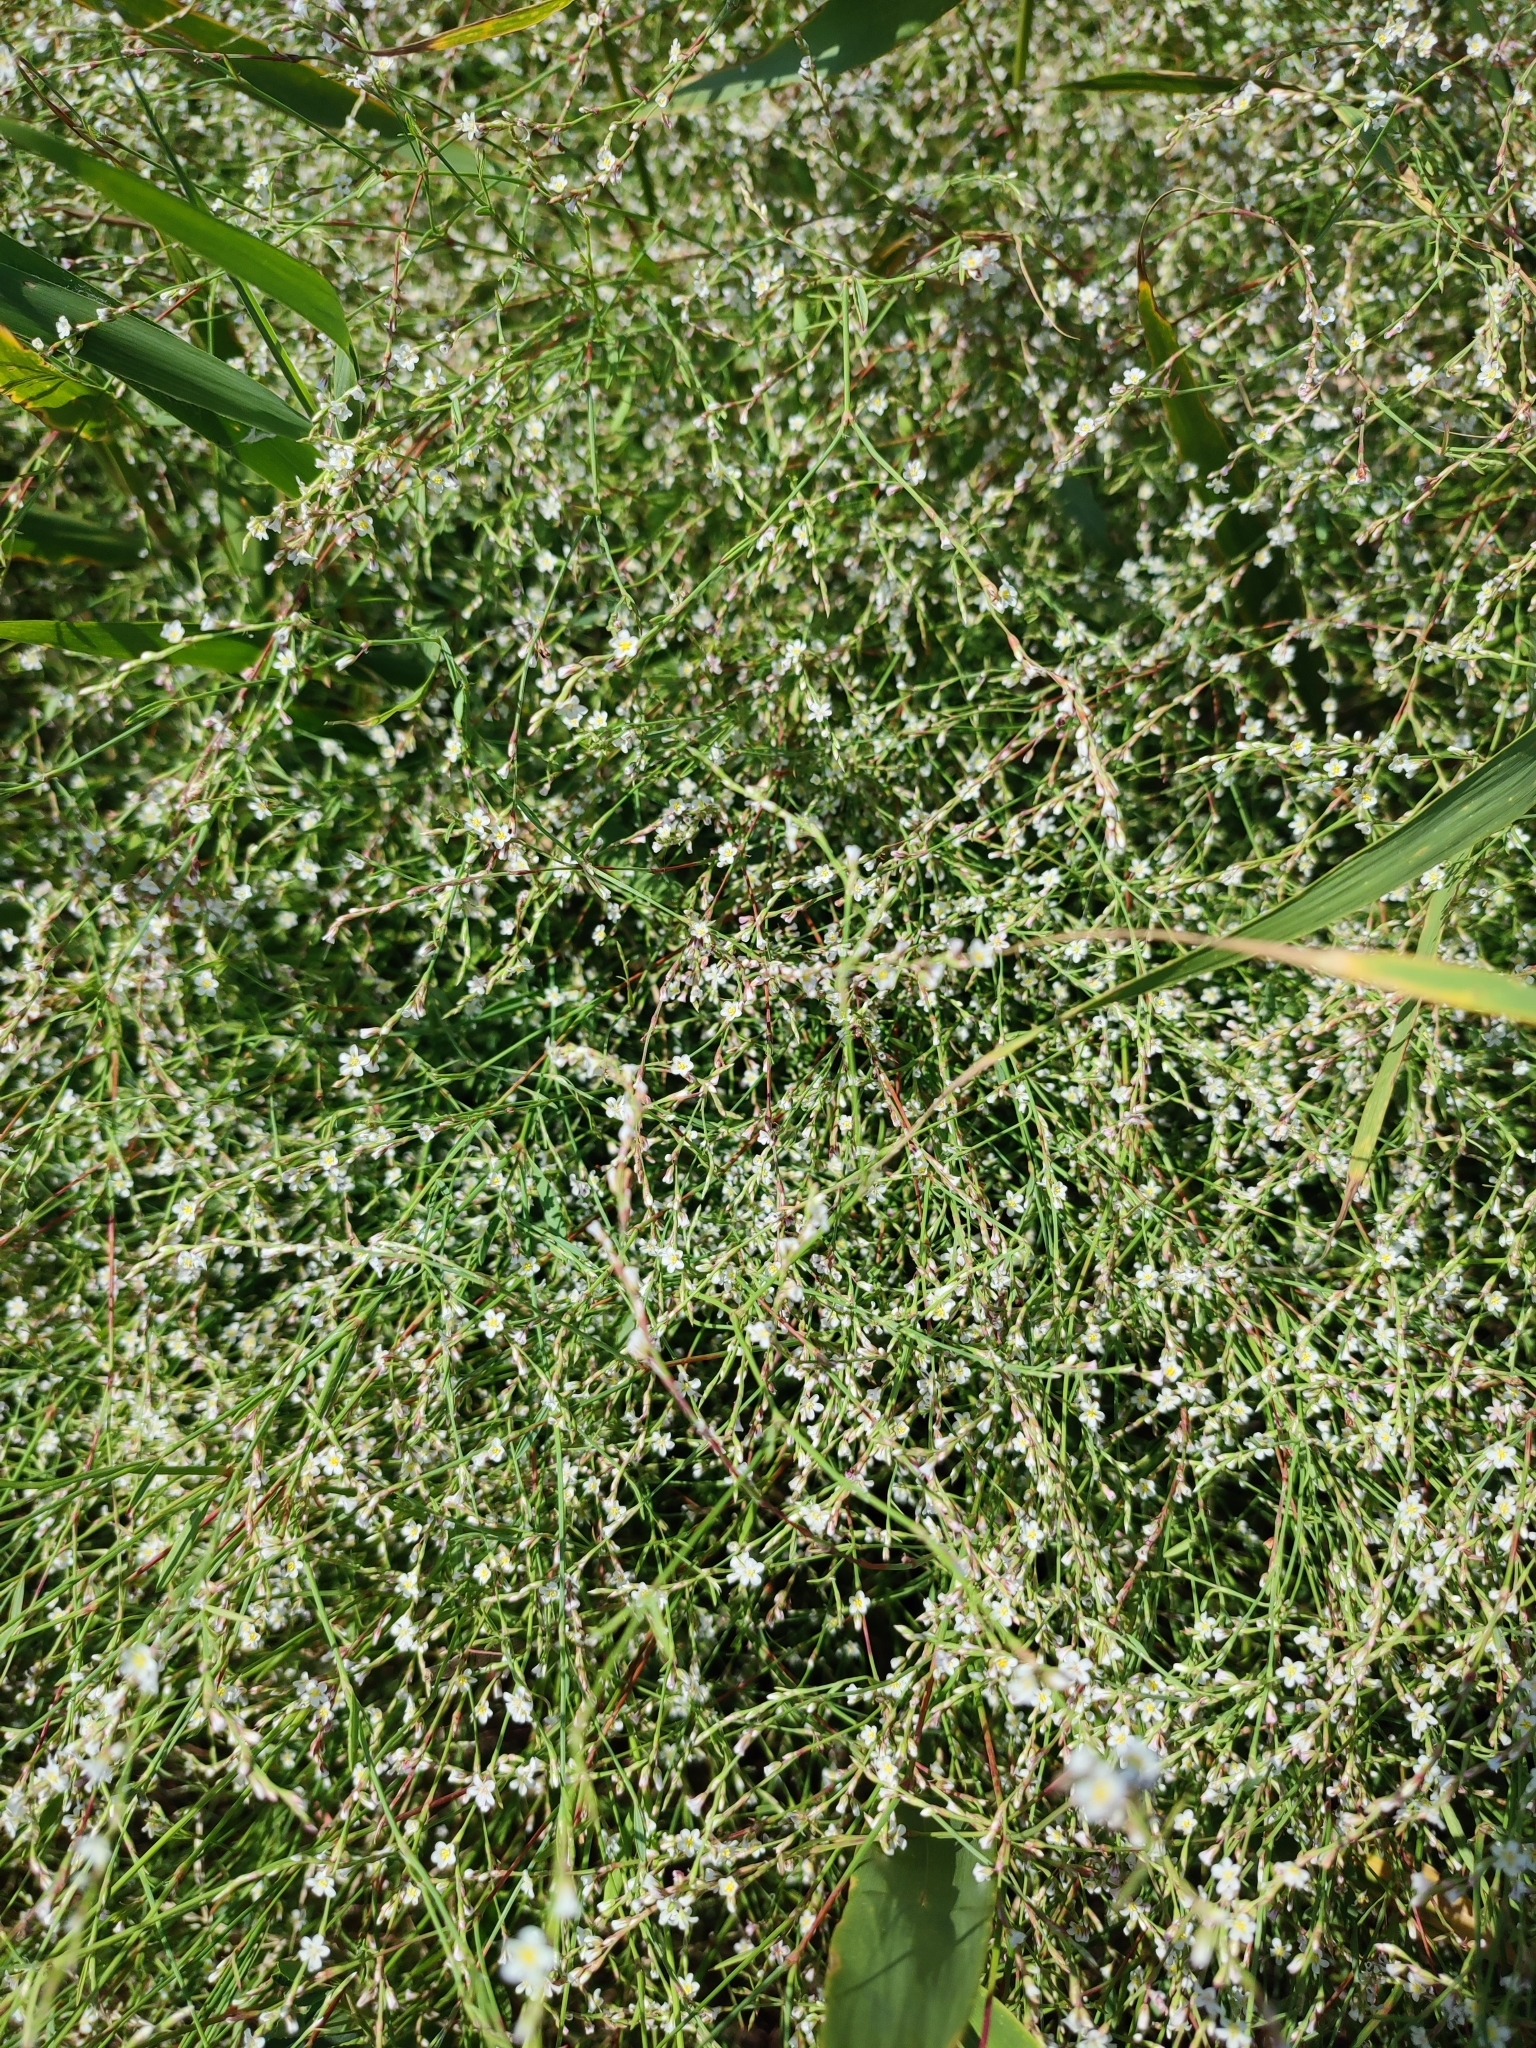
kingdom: Plantae
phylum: Tracheophyta
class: Magnoliopsida
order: Caryophyllales
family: Polygonaceae
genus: Polygonum
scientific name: Polygonum arenarium
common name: Lesser red-knotgrass
